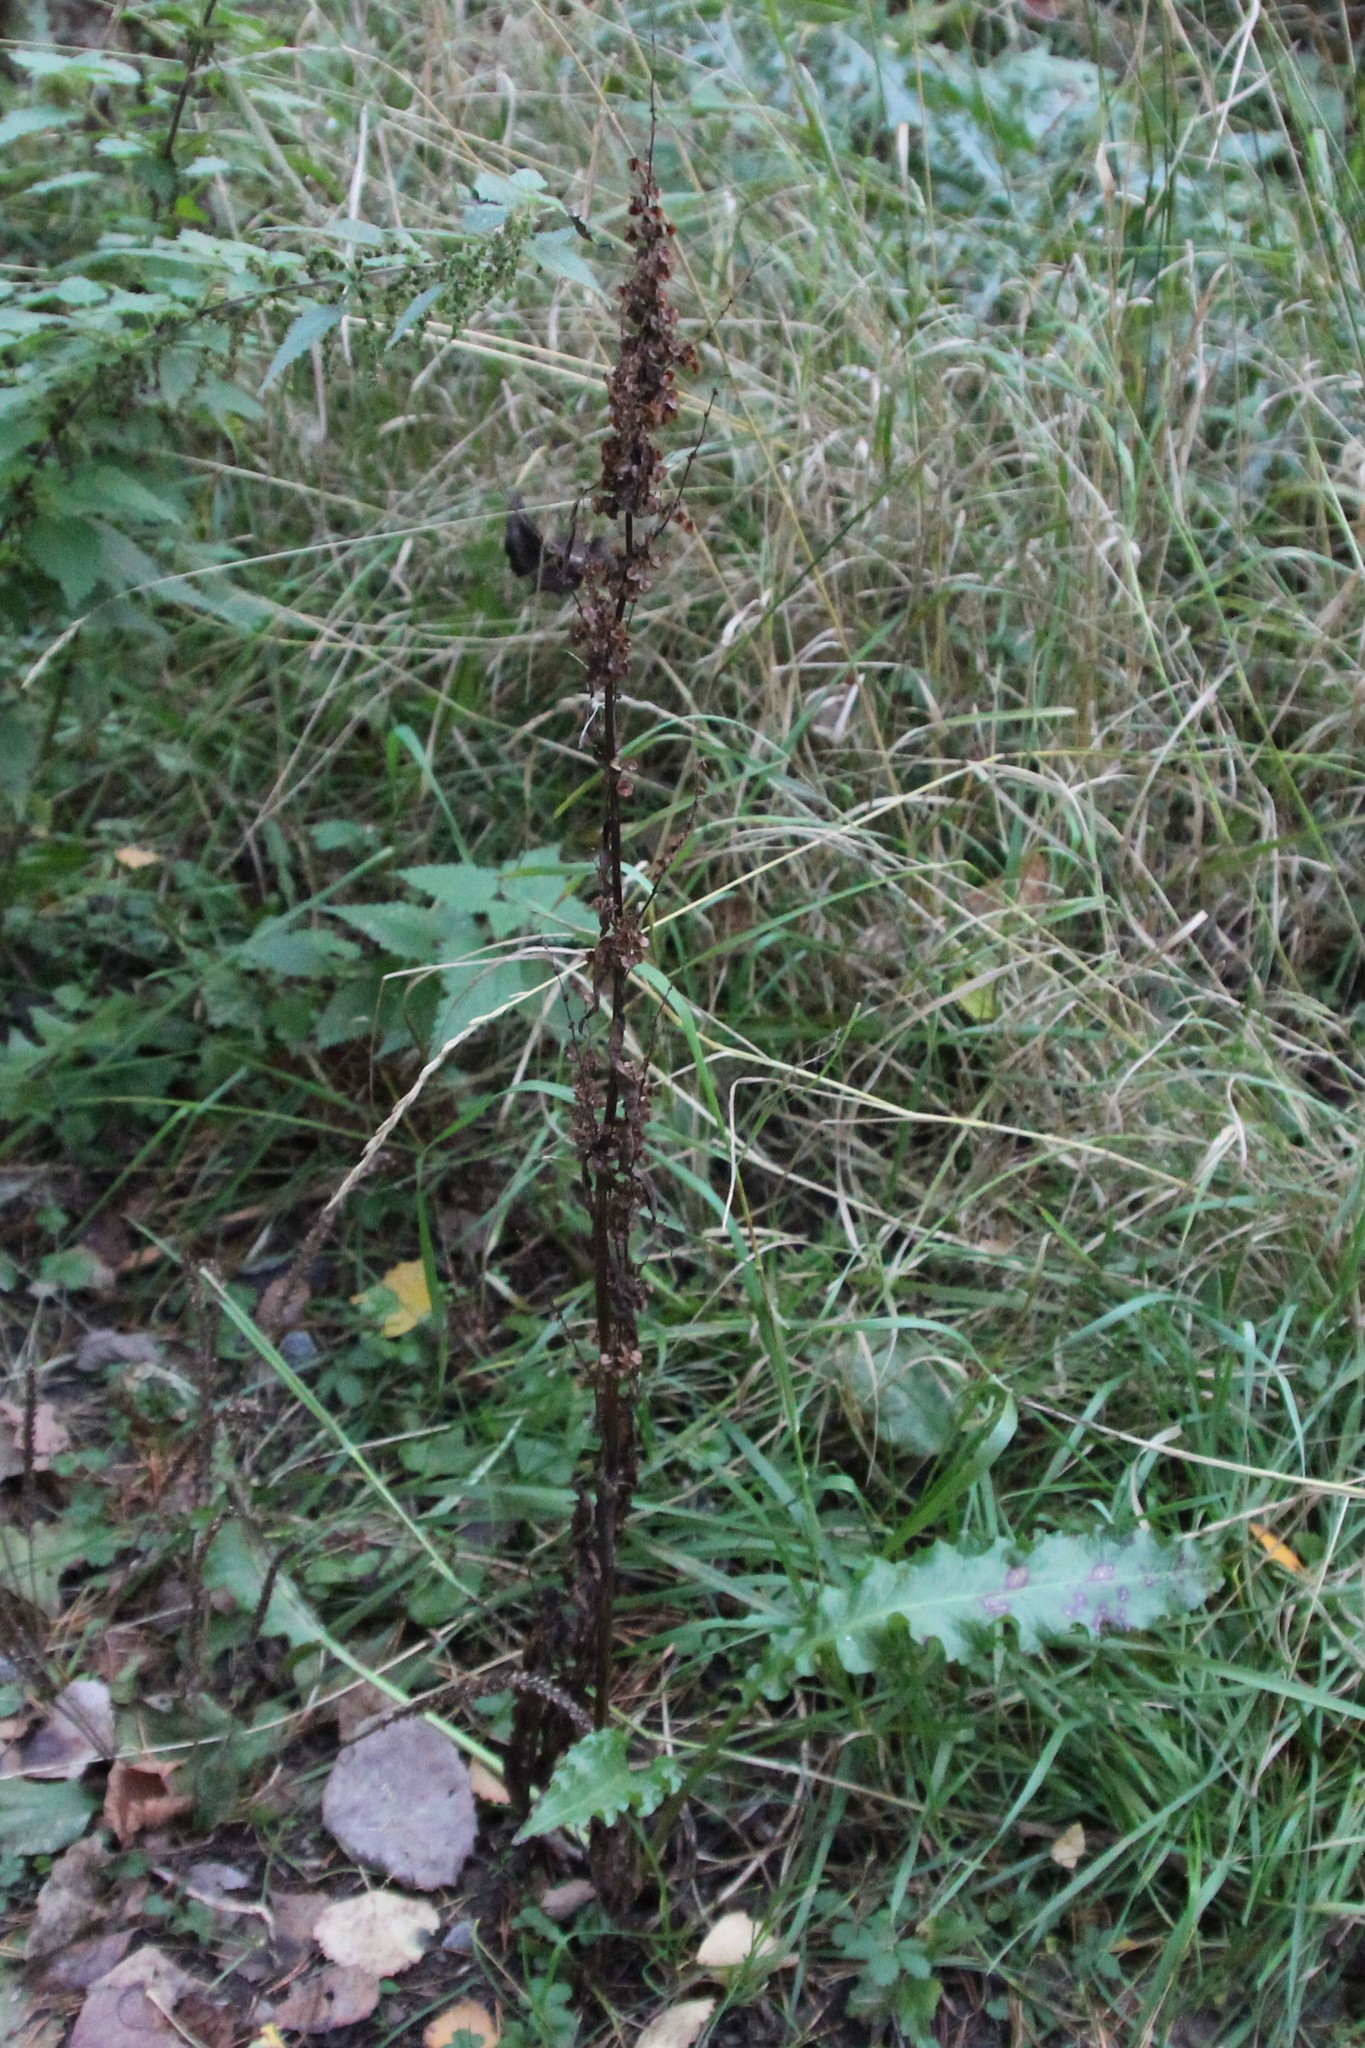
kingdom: Plantae
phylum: Tracheophyta
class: Magnoliopsida
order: Caryophyllales
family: Polygonaceae
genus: Rumex
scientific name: Rumex crispus
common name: Curled dock
